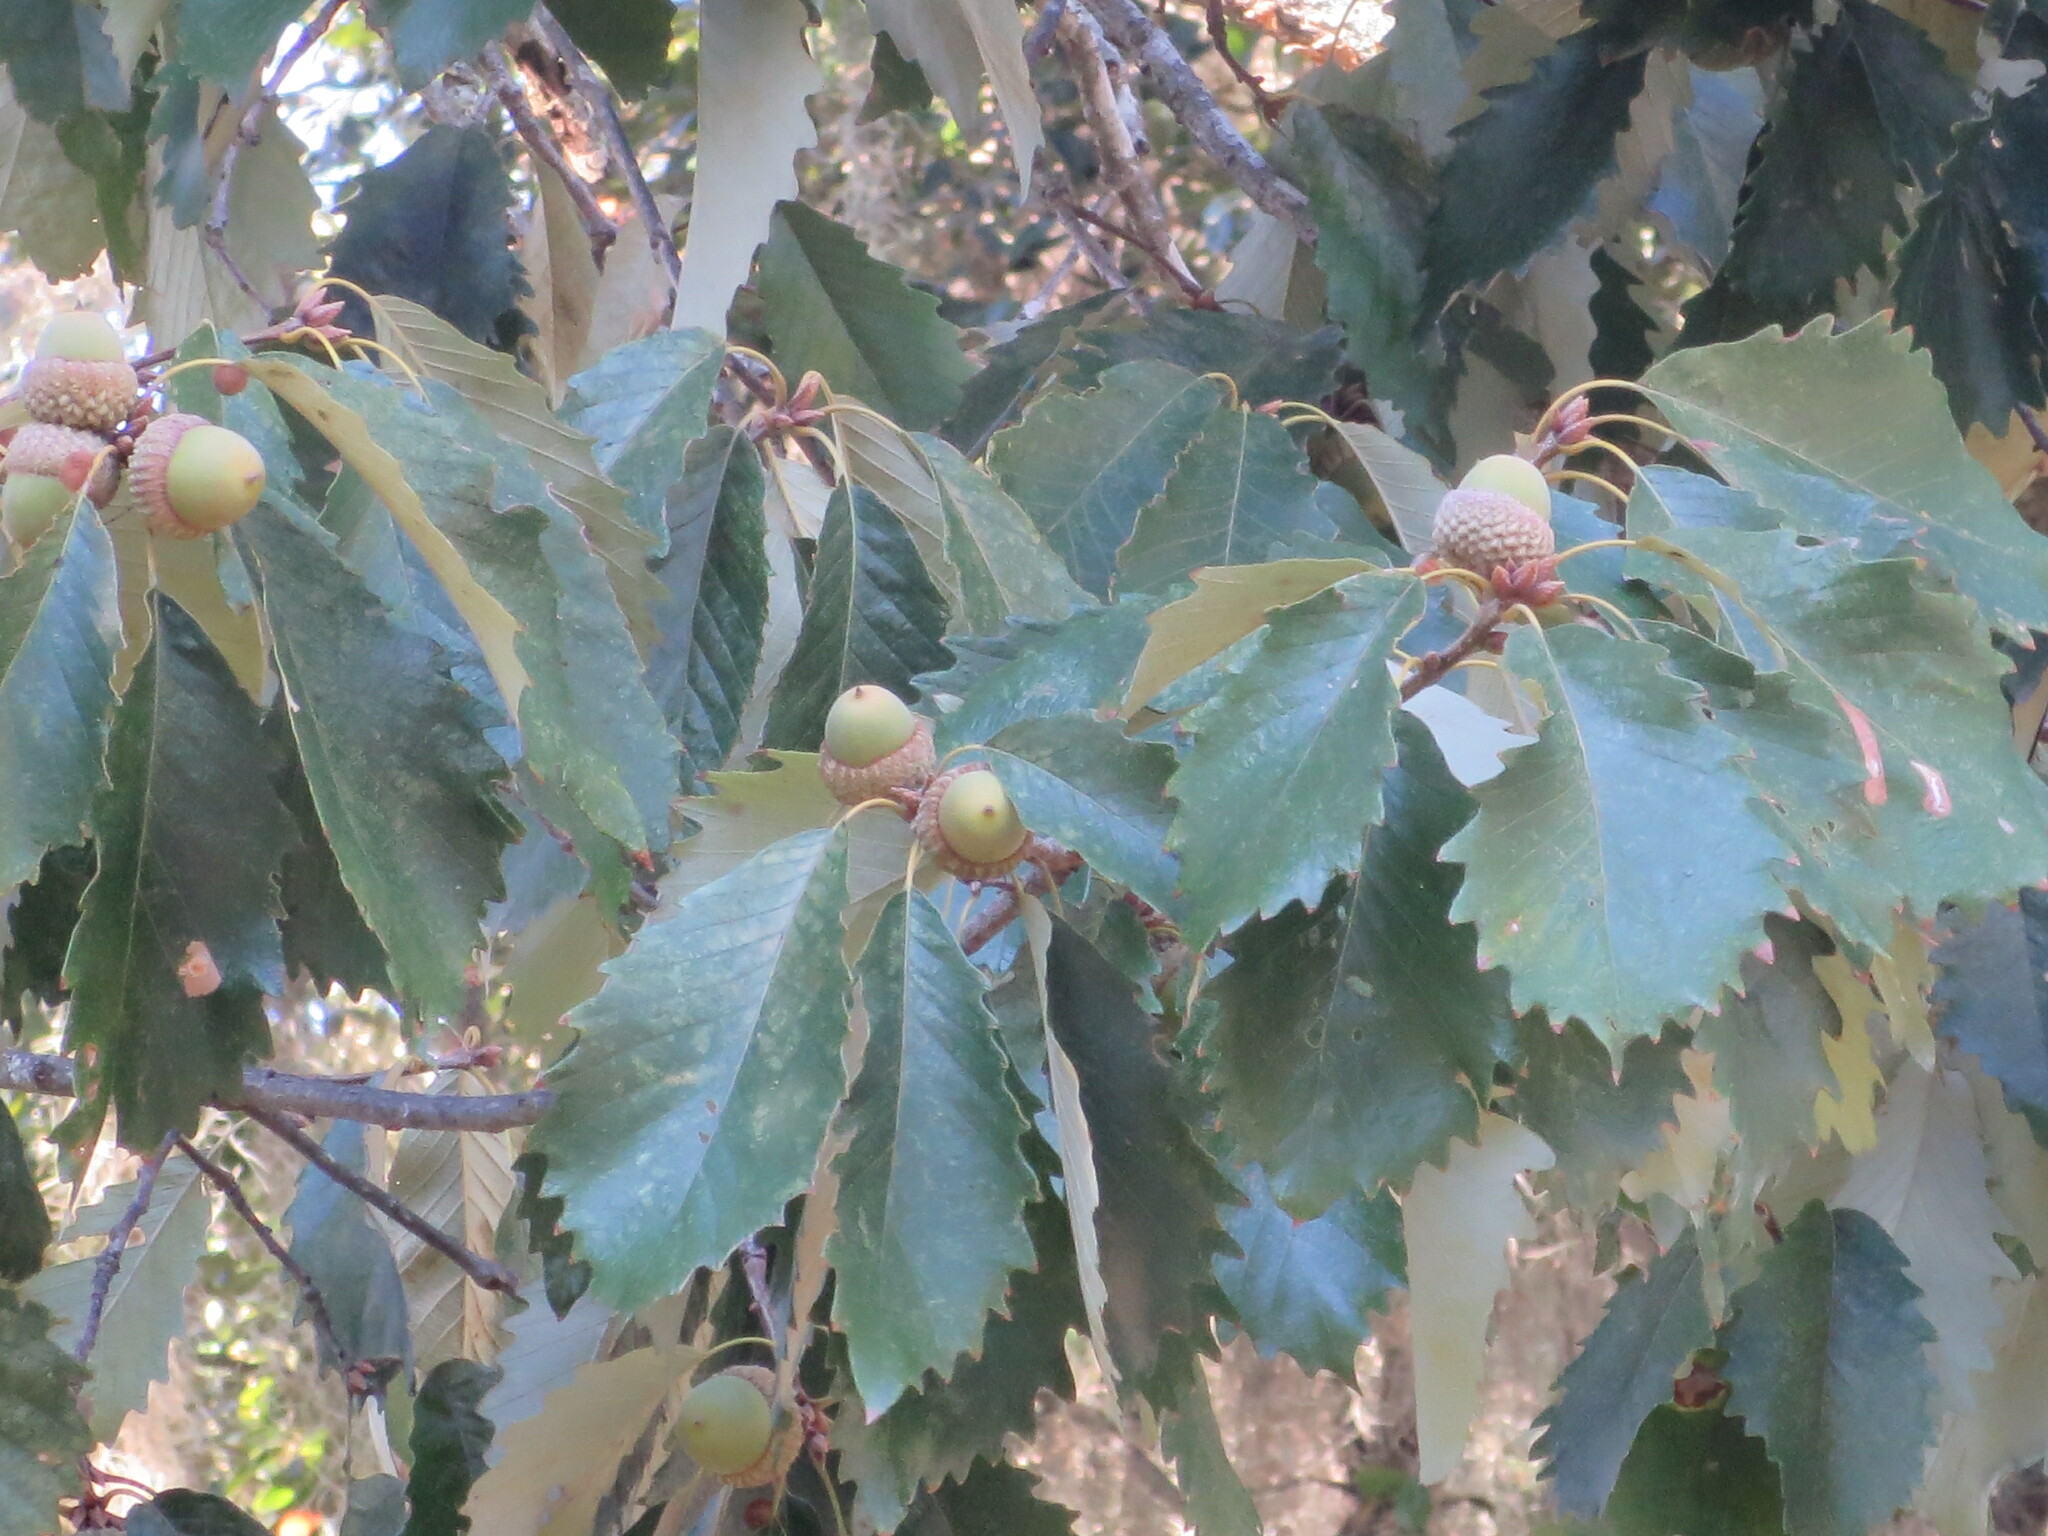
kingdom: Plantae
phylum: Tracheophyta
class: Magnoliopsida
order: Fagales
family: Fagaceae
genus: Quercus
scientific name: Quercus michauxii
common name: Swamp chestnut oak
